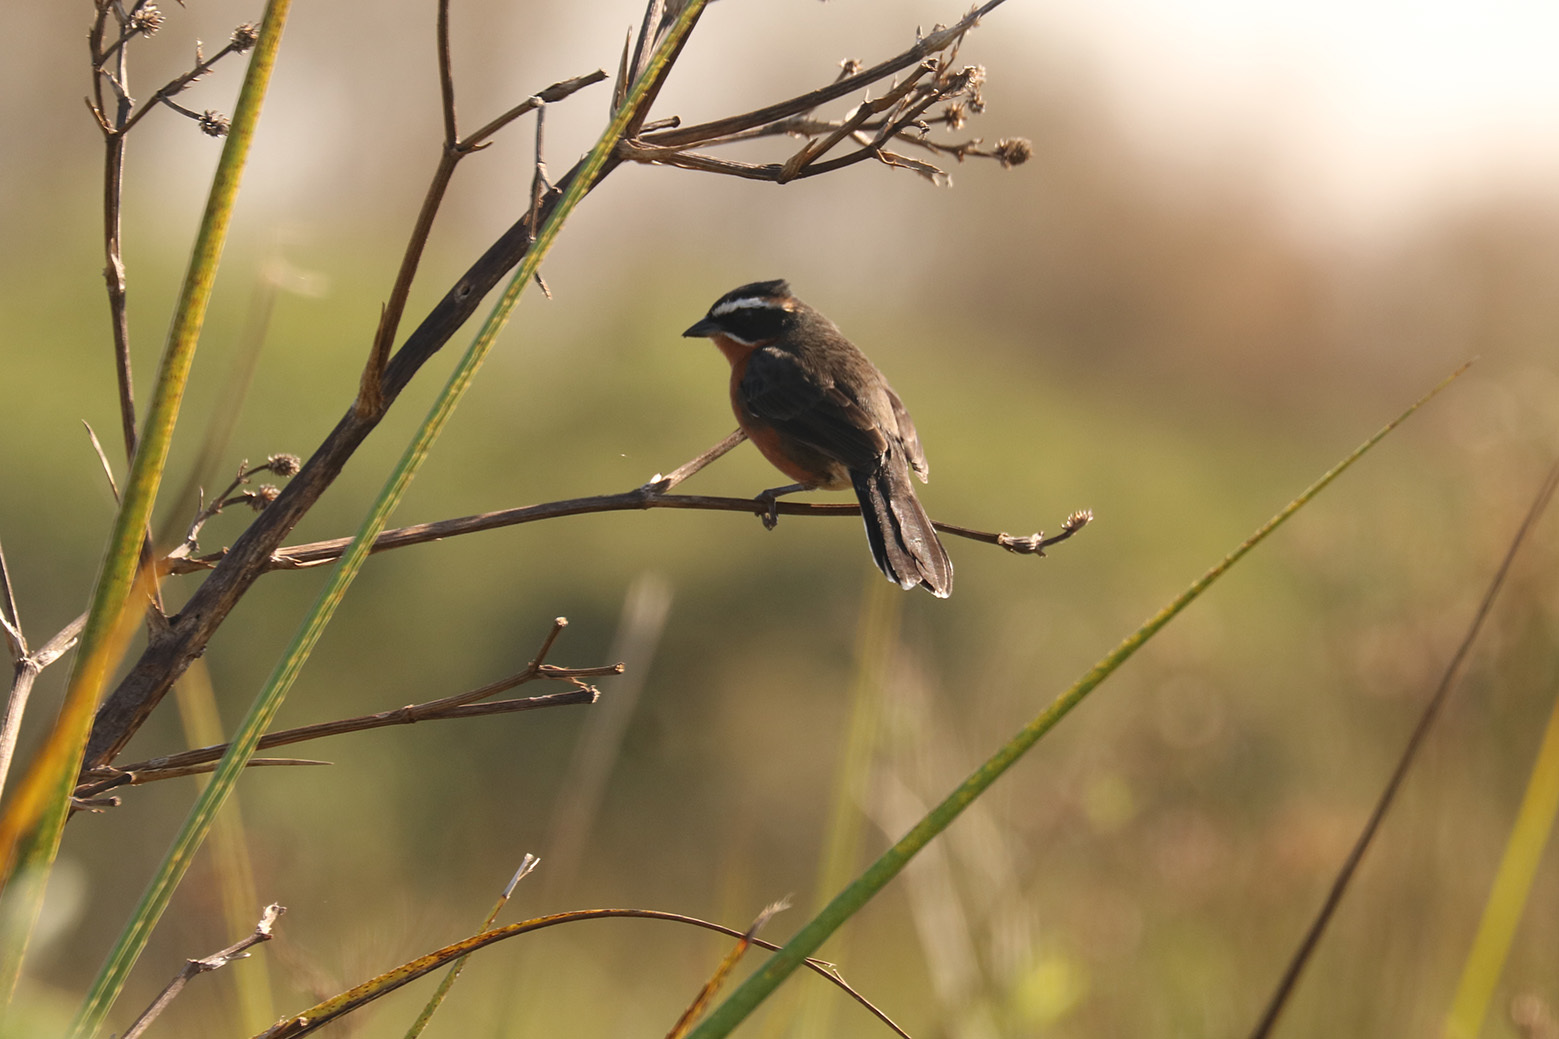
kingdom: Animalia
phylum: Chordata
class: Aves
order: Passeriformes
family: Thraupidae
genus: Poospiza
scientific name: Poospiza nigrorufa
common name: Black-and-rufous warbling finch
